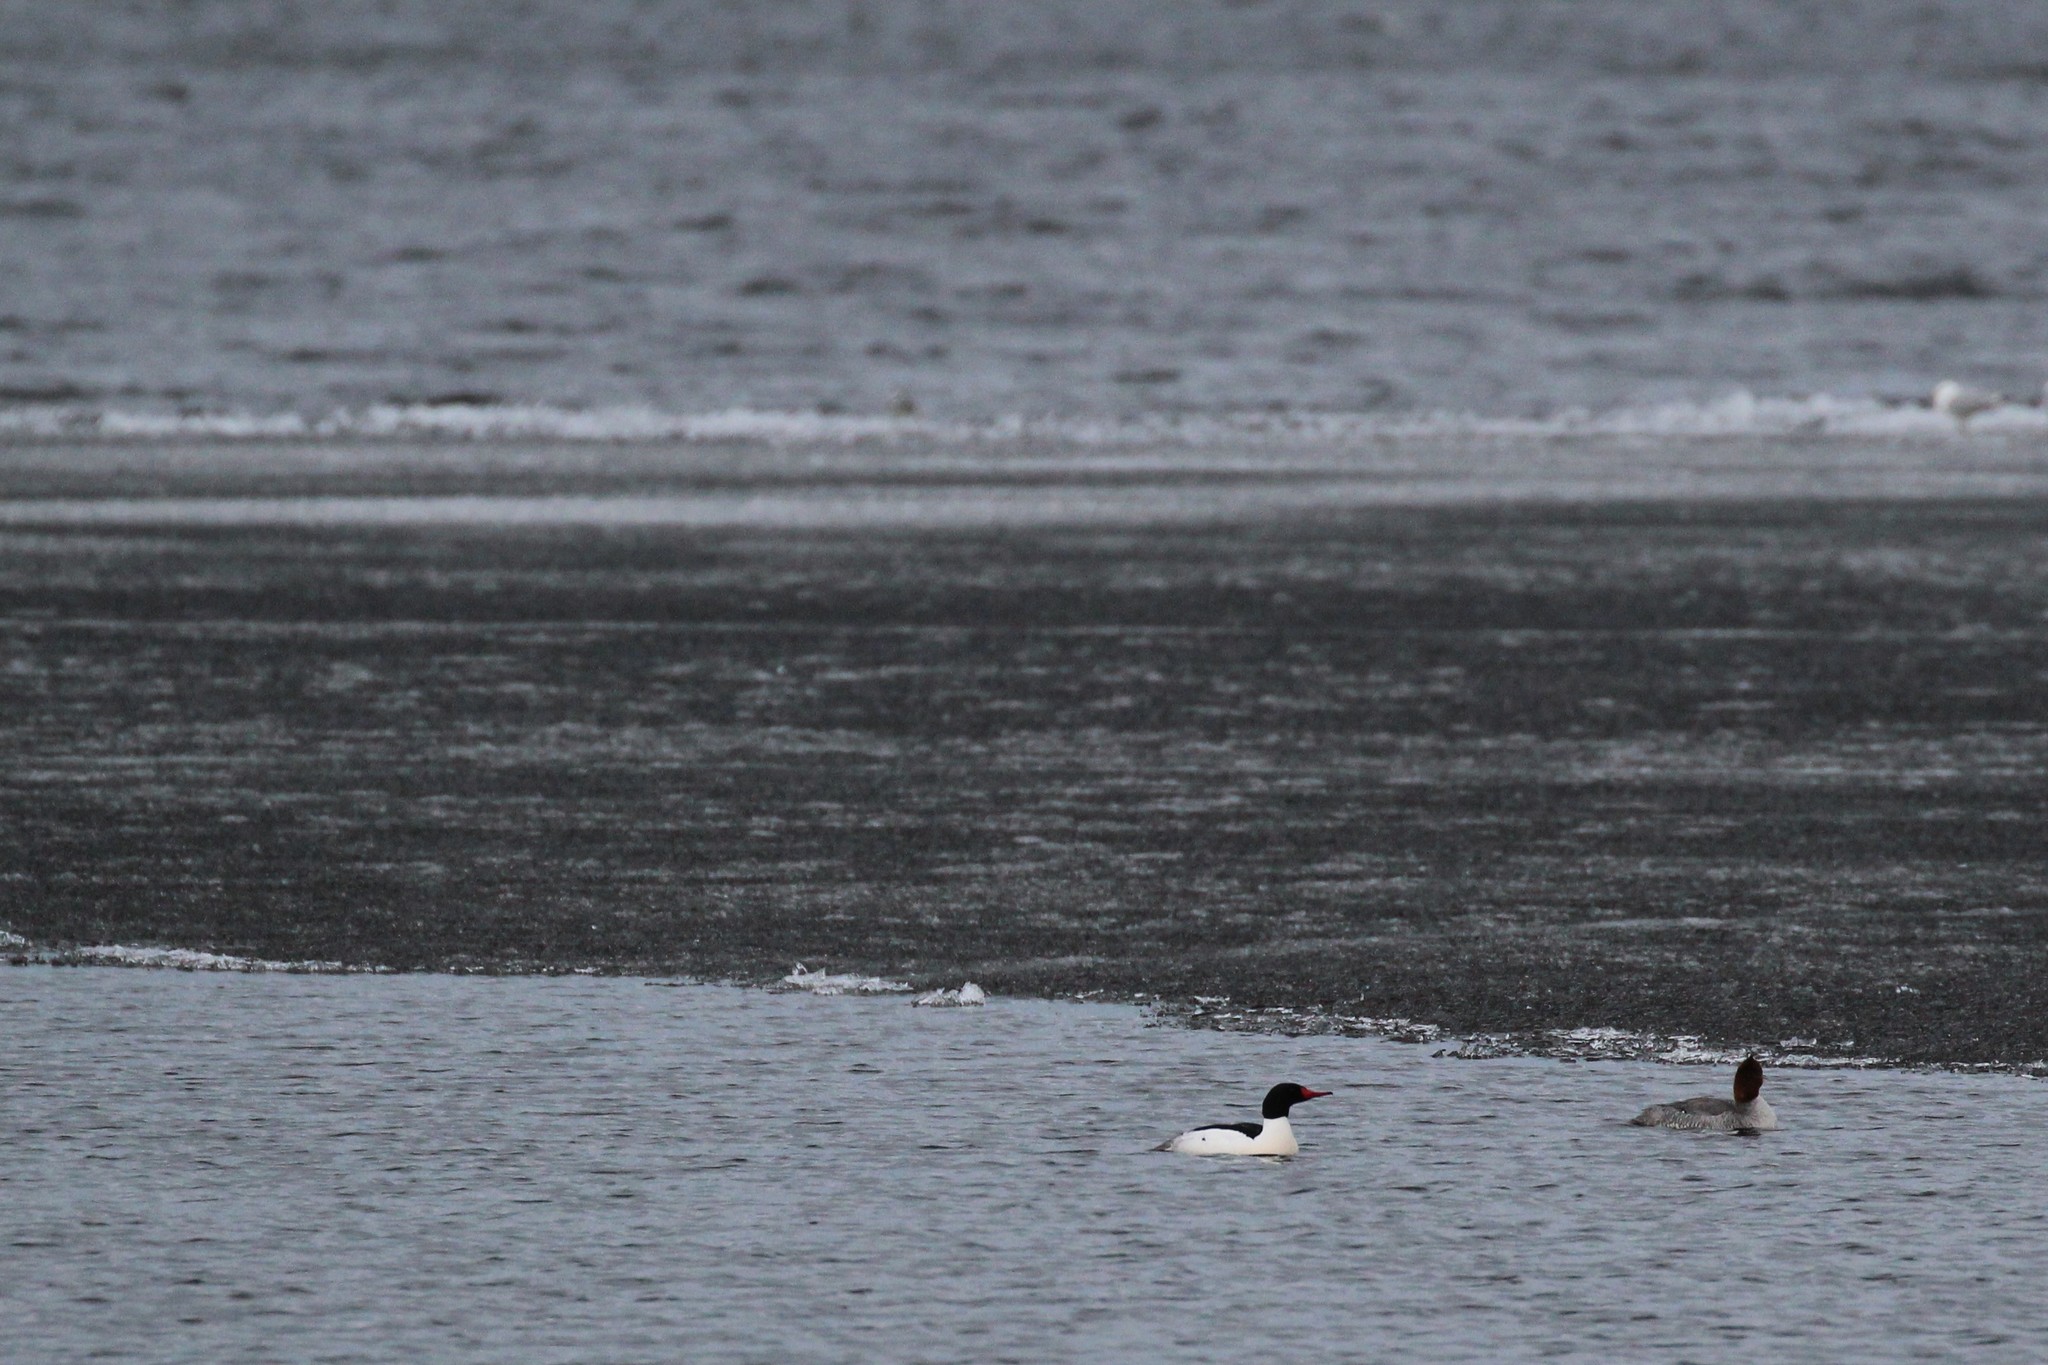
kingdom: Animalia
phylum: Chordata
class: Aves
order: Anseriformes
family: Anatidae
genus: Mergus
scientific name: Mergus merganser
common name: Common merganser
